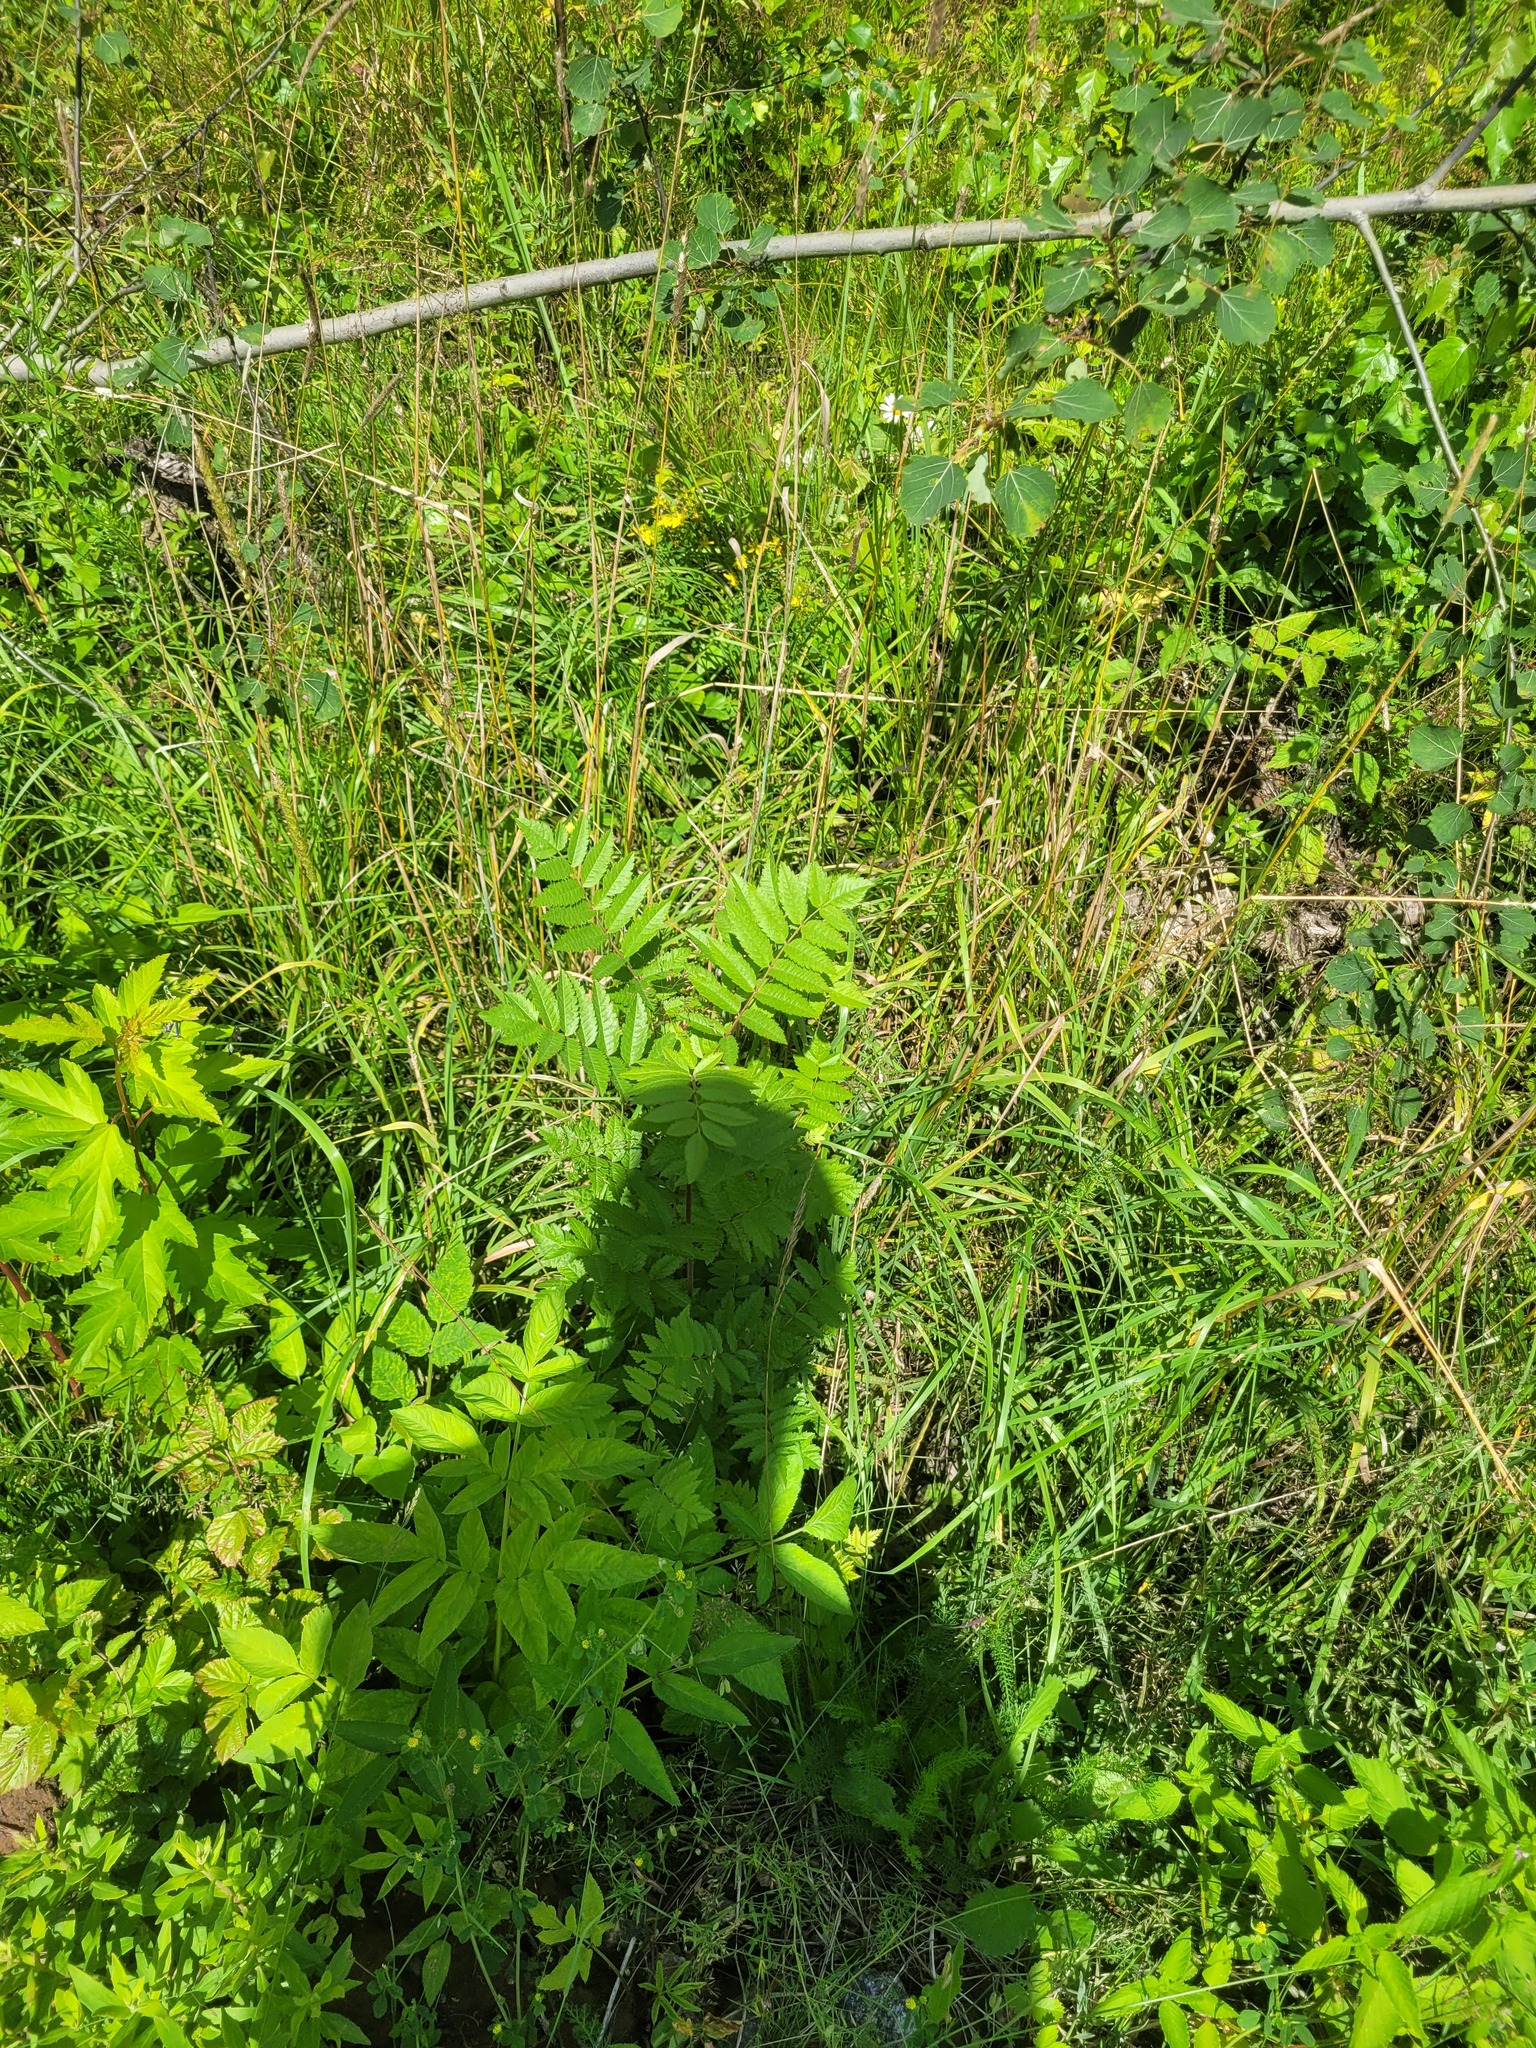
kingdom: Plantae
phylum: Tracheophyta
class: Magnoliopsida
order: Rosales
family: Rosaceae
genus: Sorbus
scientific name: Sorbus aucuparia
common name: Rowan
